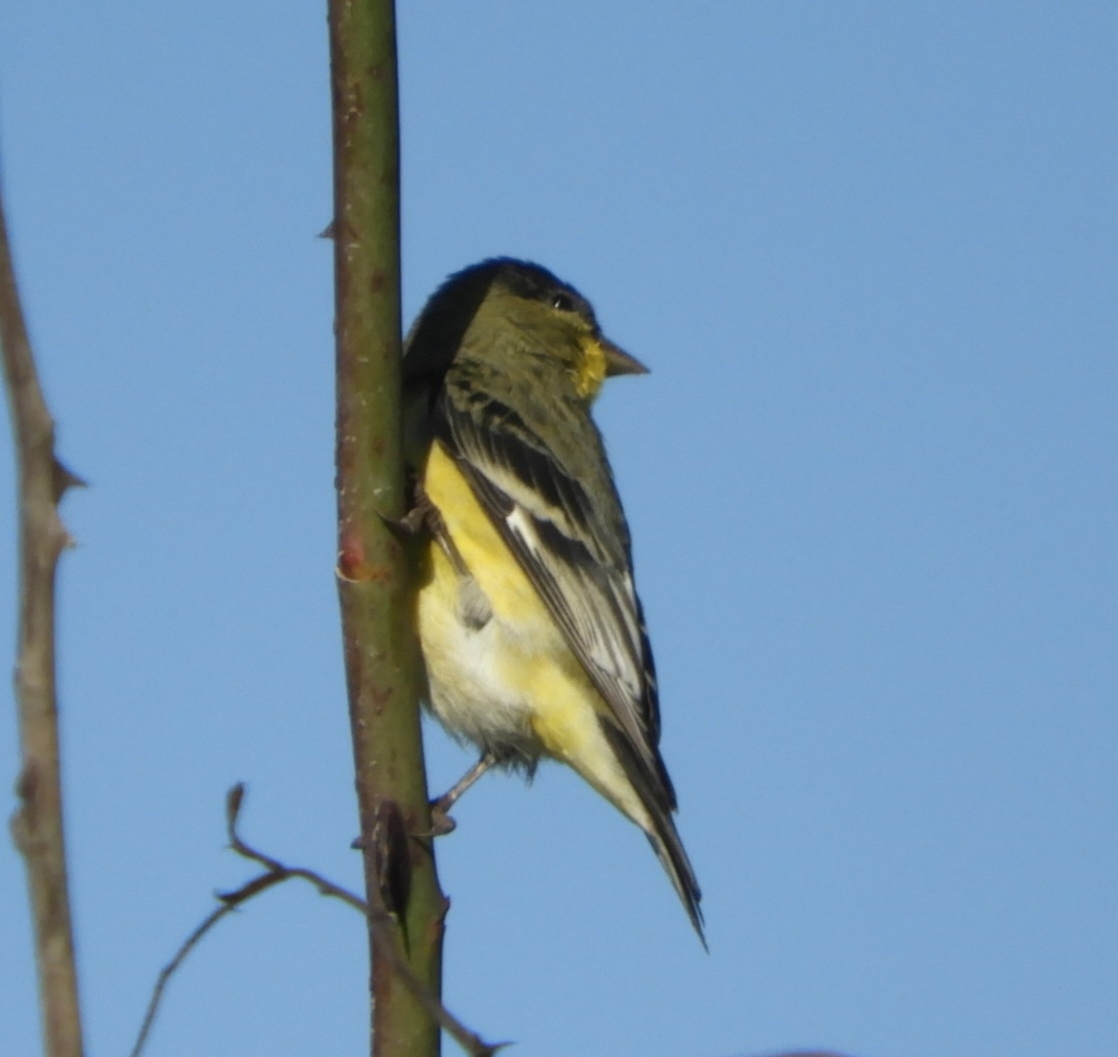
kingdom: Animalia
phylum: Chordata
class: Aves
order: Passeriformes
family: Fringillidae
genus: Spinus
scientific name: Spinus psaltria
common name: Lesser goldfinch
